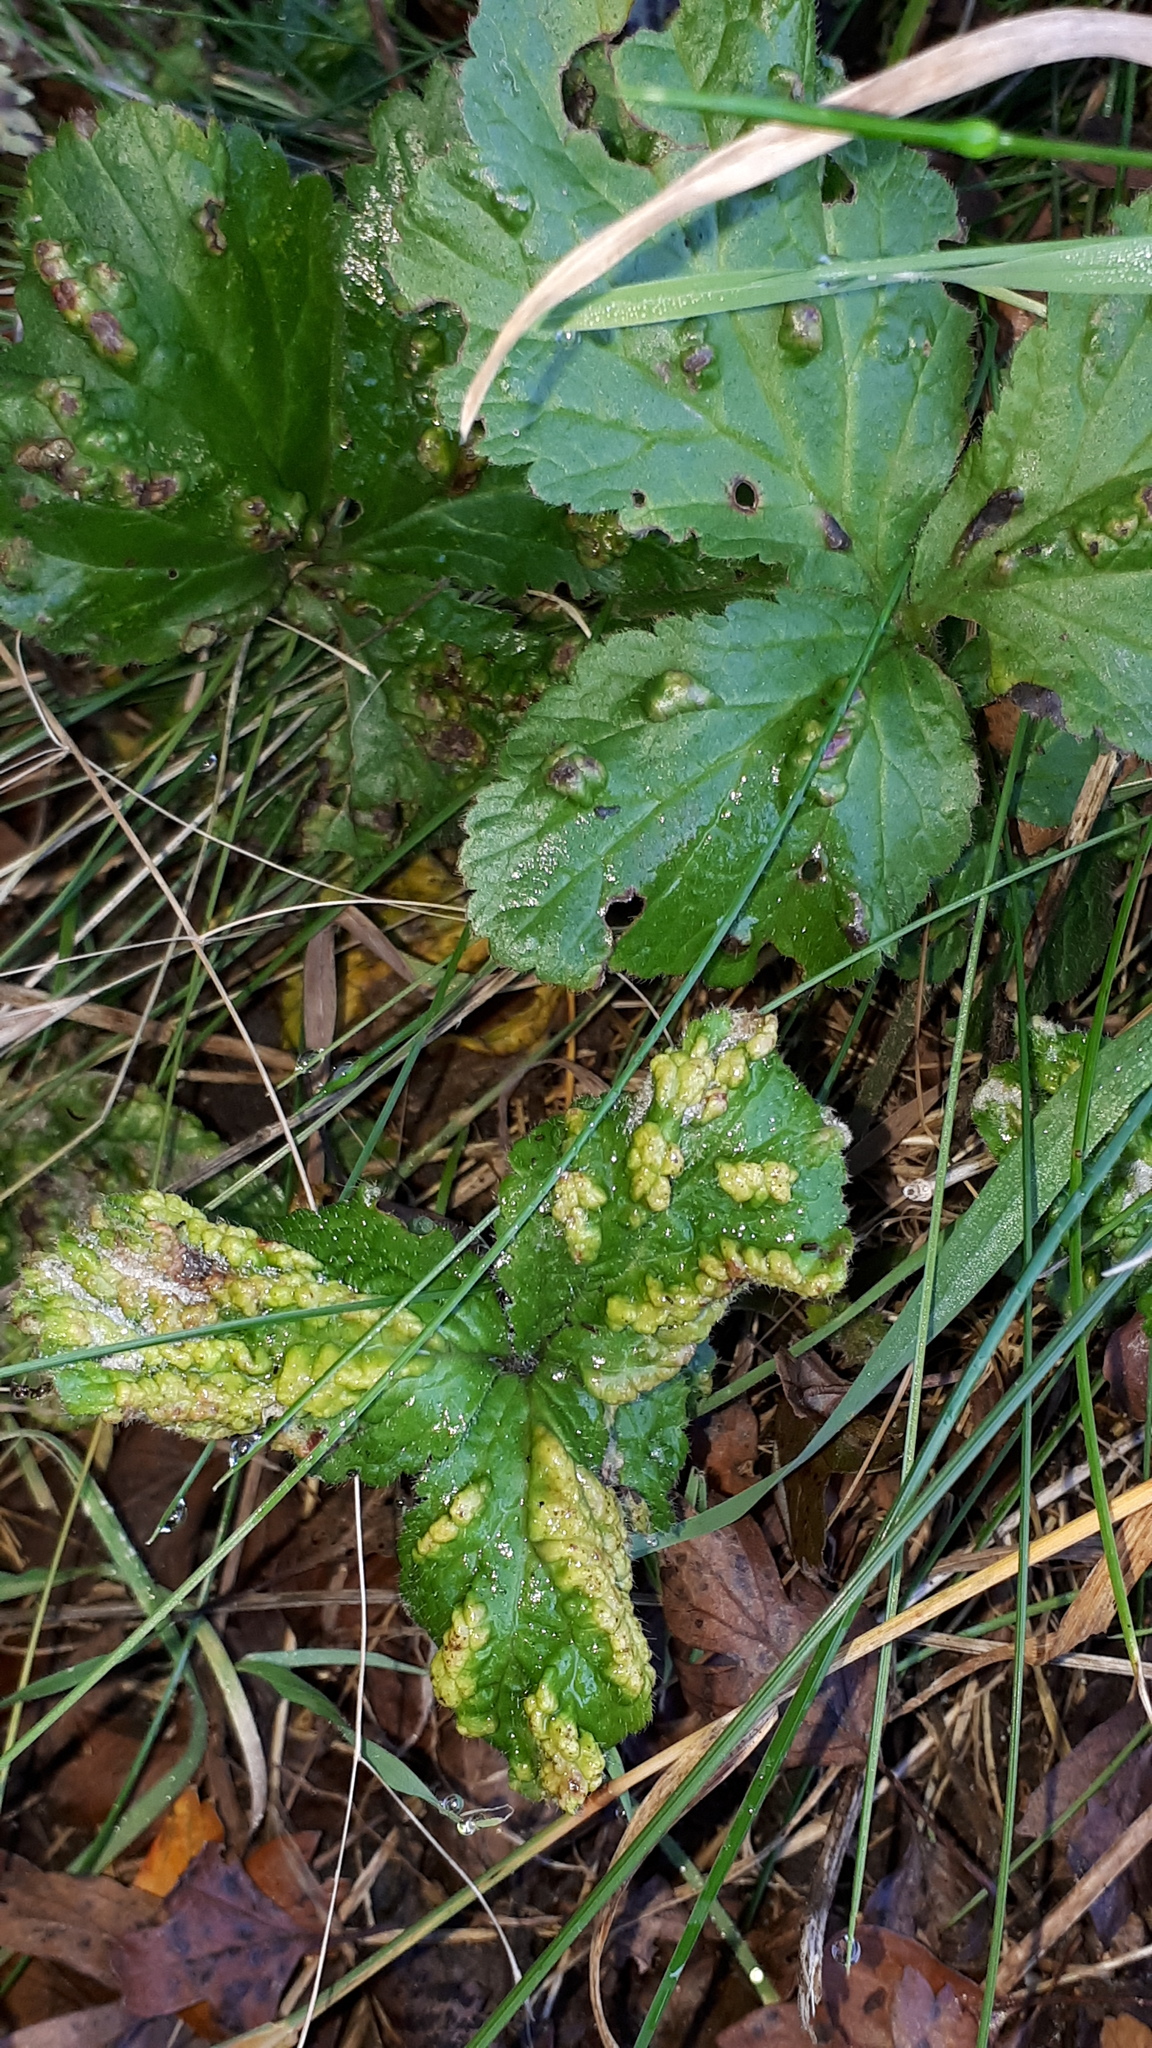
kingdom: Animalia
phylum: Arthropoda
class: Arachnida
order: Trombidiformes
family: Eriophyidae
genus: Cecidophyes
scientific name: Cecidophyes nudus
